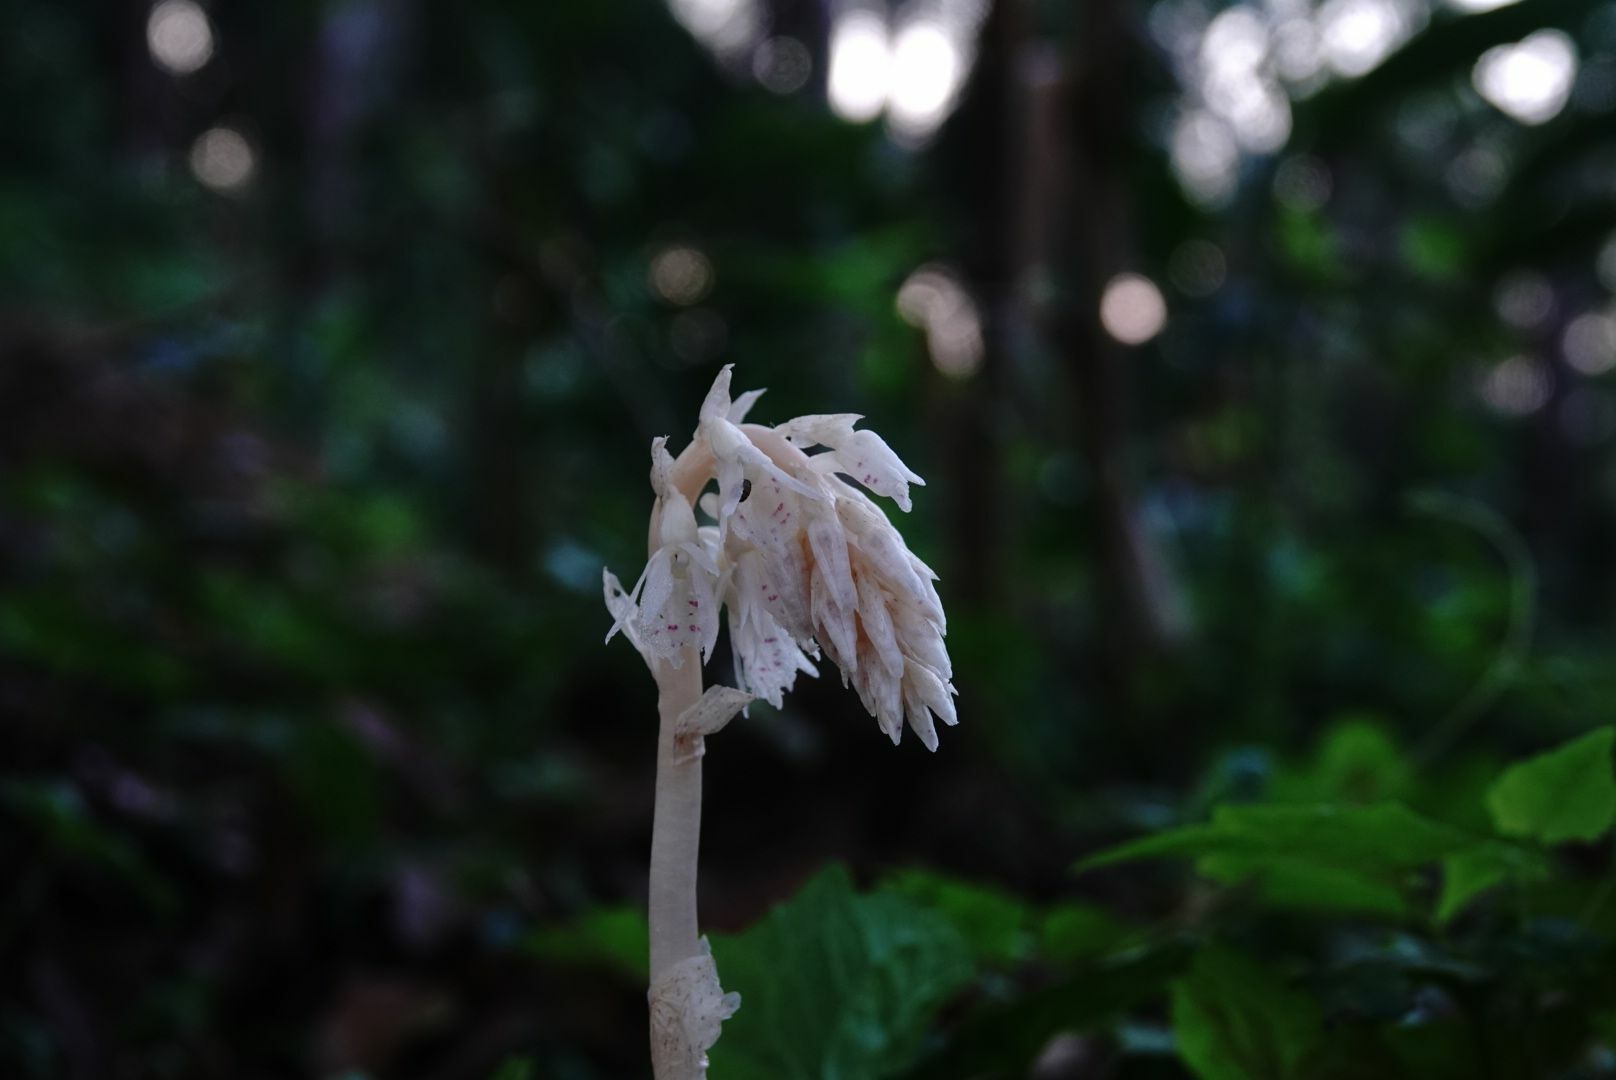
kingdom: Plantae
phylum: Tracheophyta
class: Liliopsida
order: Asparagales
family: Orchidaceae
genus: Epipogium
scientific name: Epipogium roseum
